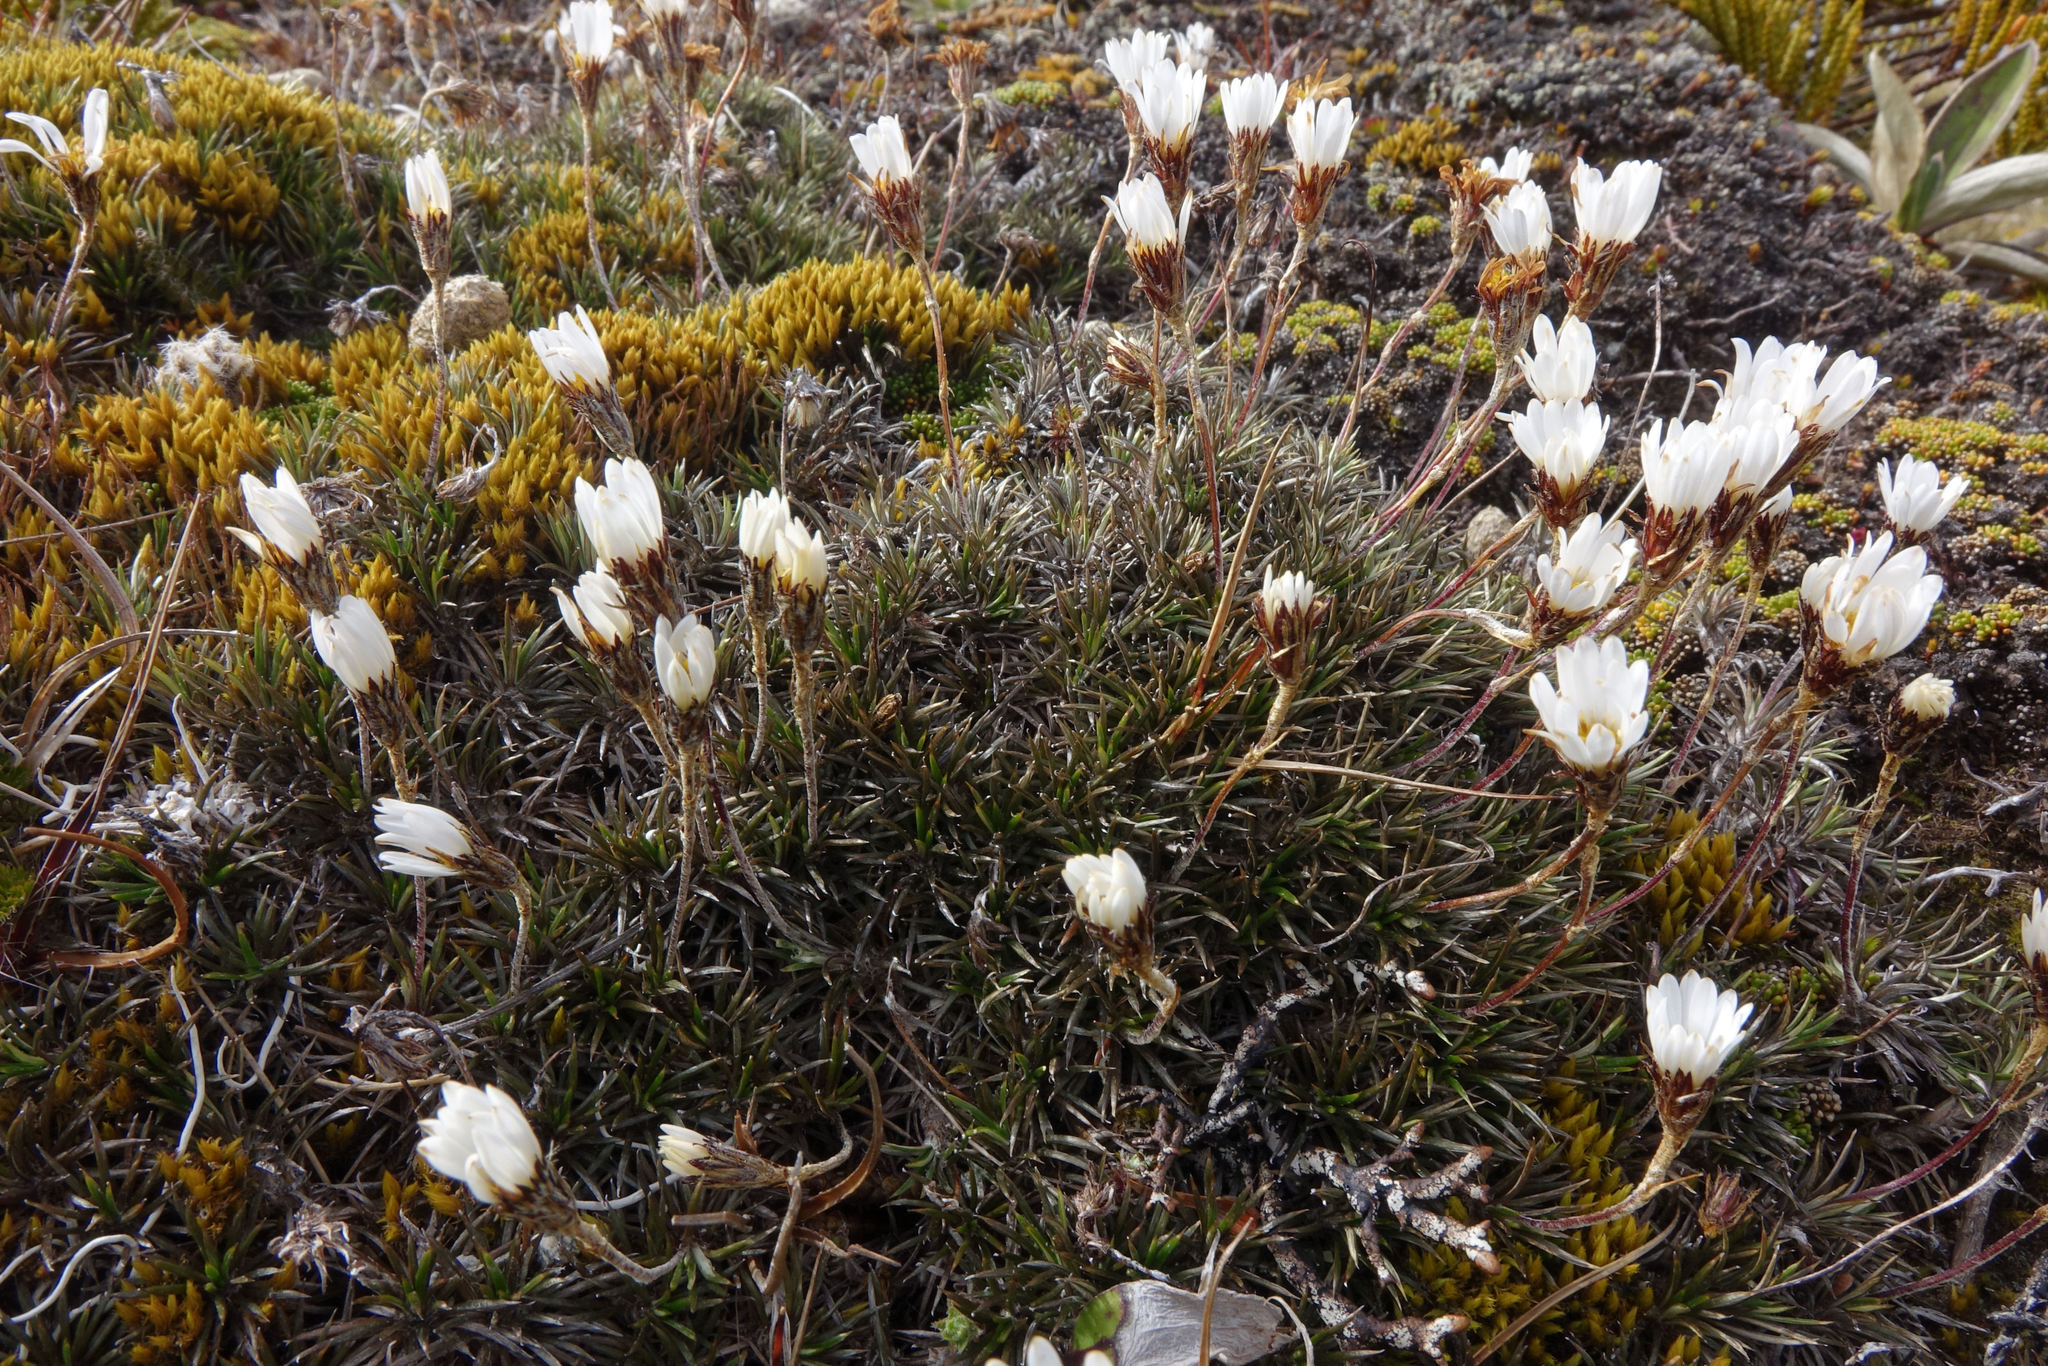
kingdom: Plantae
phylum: Tracheophyta
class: Magnoliopsida
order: Asterales
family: Asteraceae
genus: Celmisia
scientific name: Celmisia laricifolia
